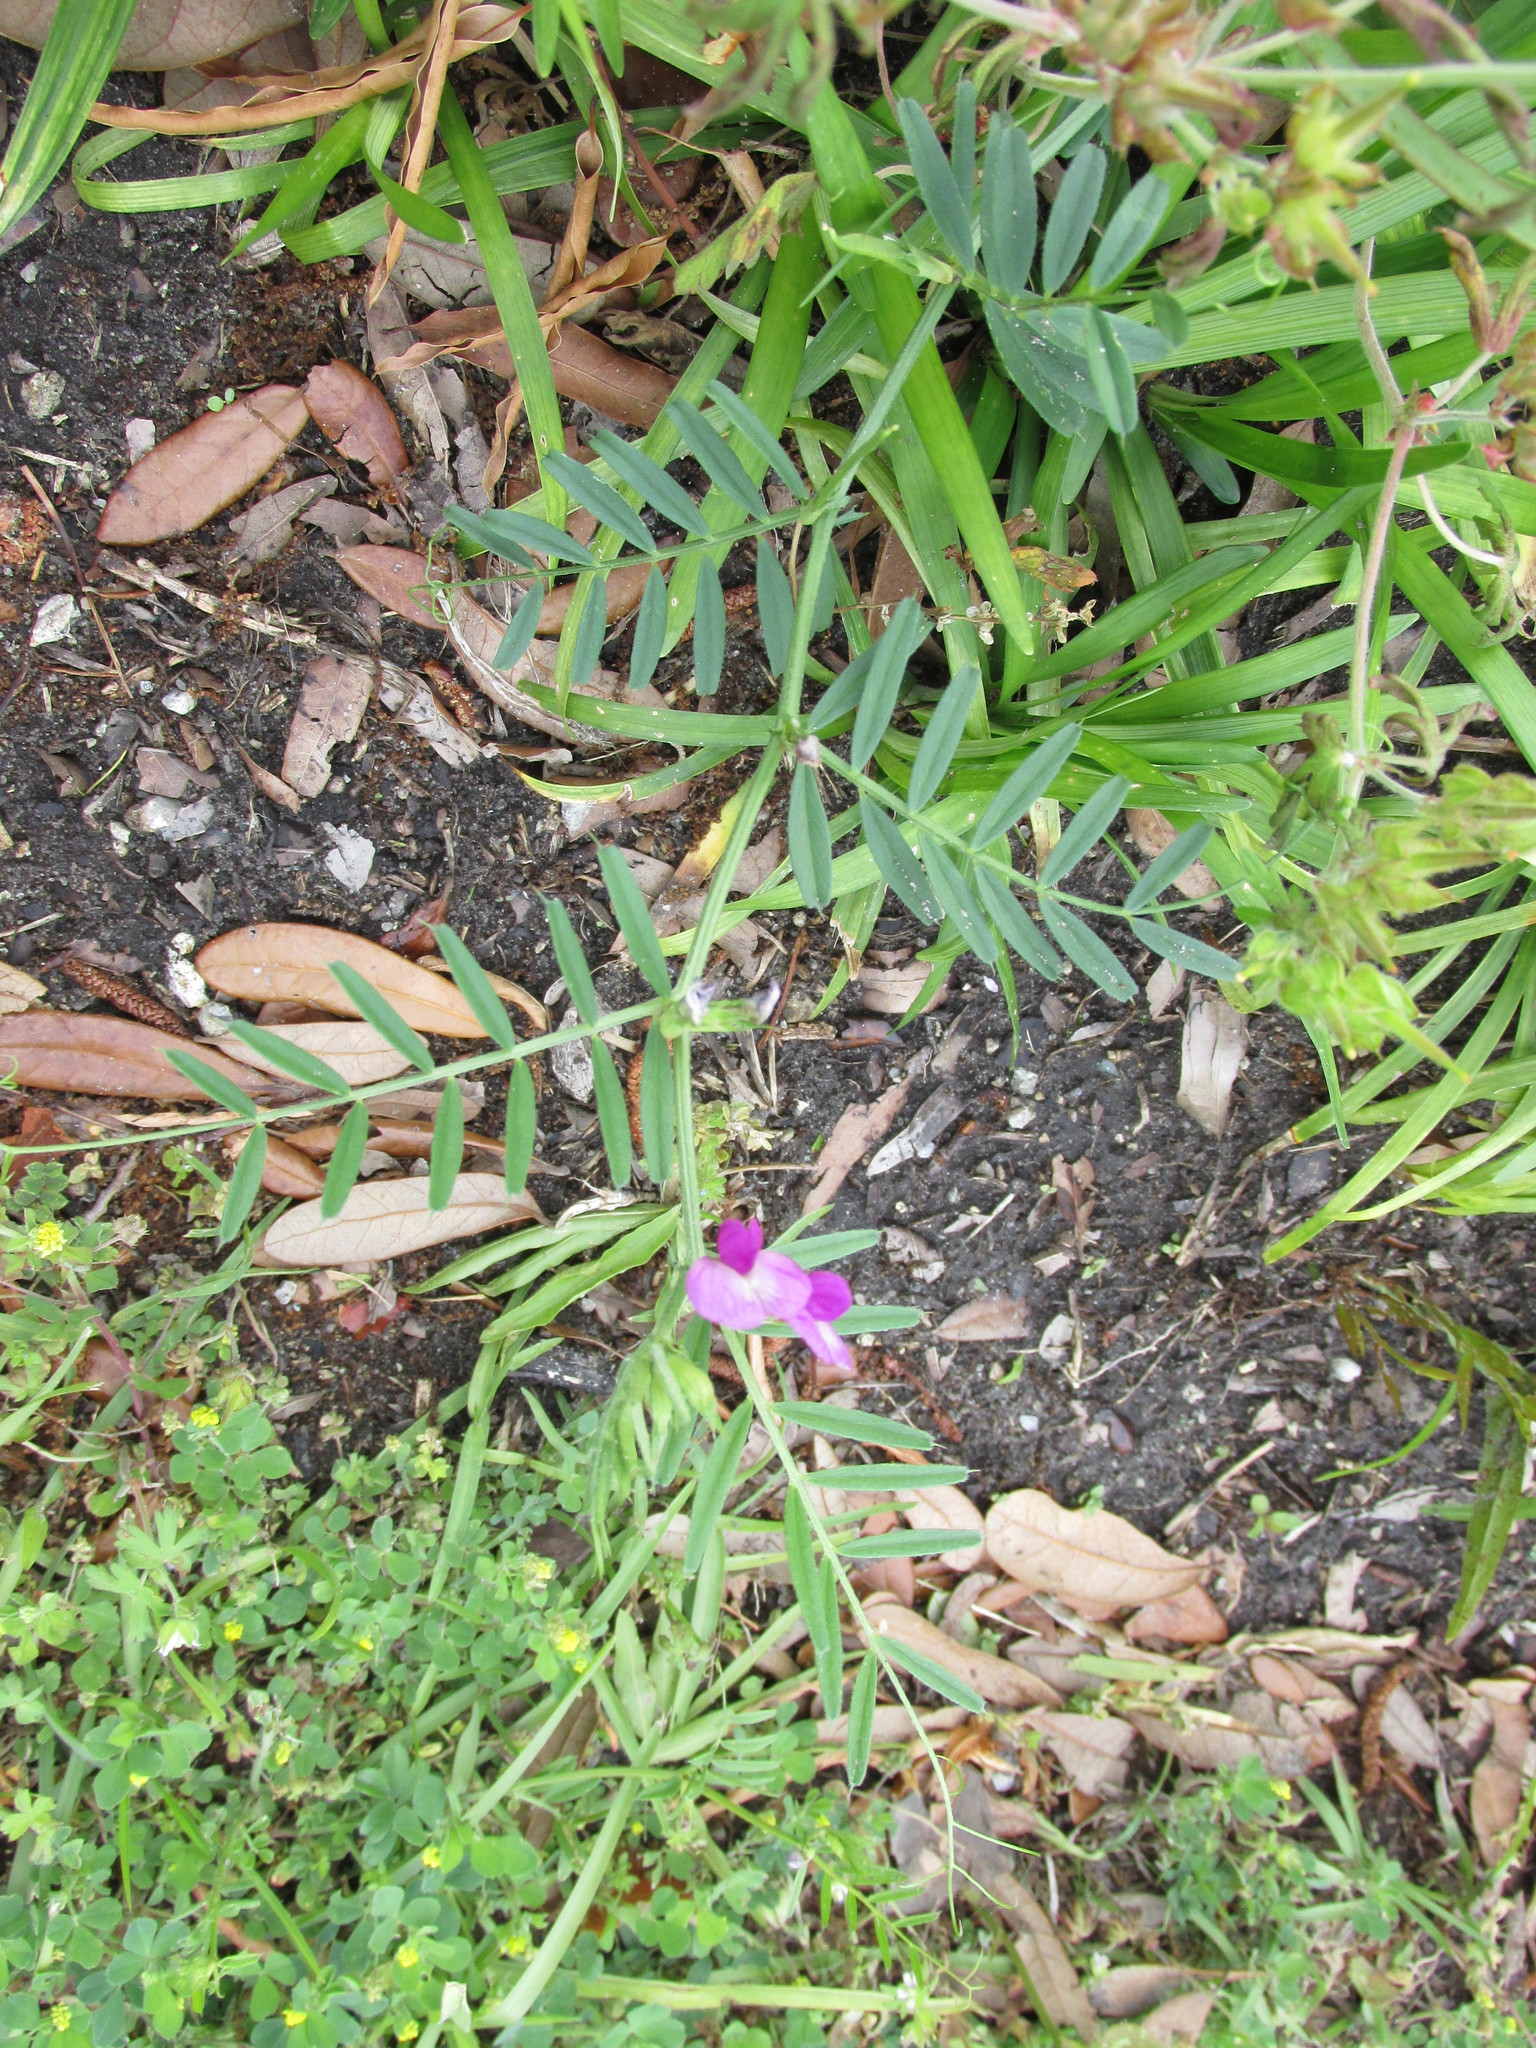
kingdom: Plantae
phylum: Tracheophyta
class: Magnoliopsida
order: Fabales
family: Fabaceae
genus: Vicia
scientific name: Vicia sativa
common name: Garden vetch
